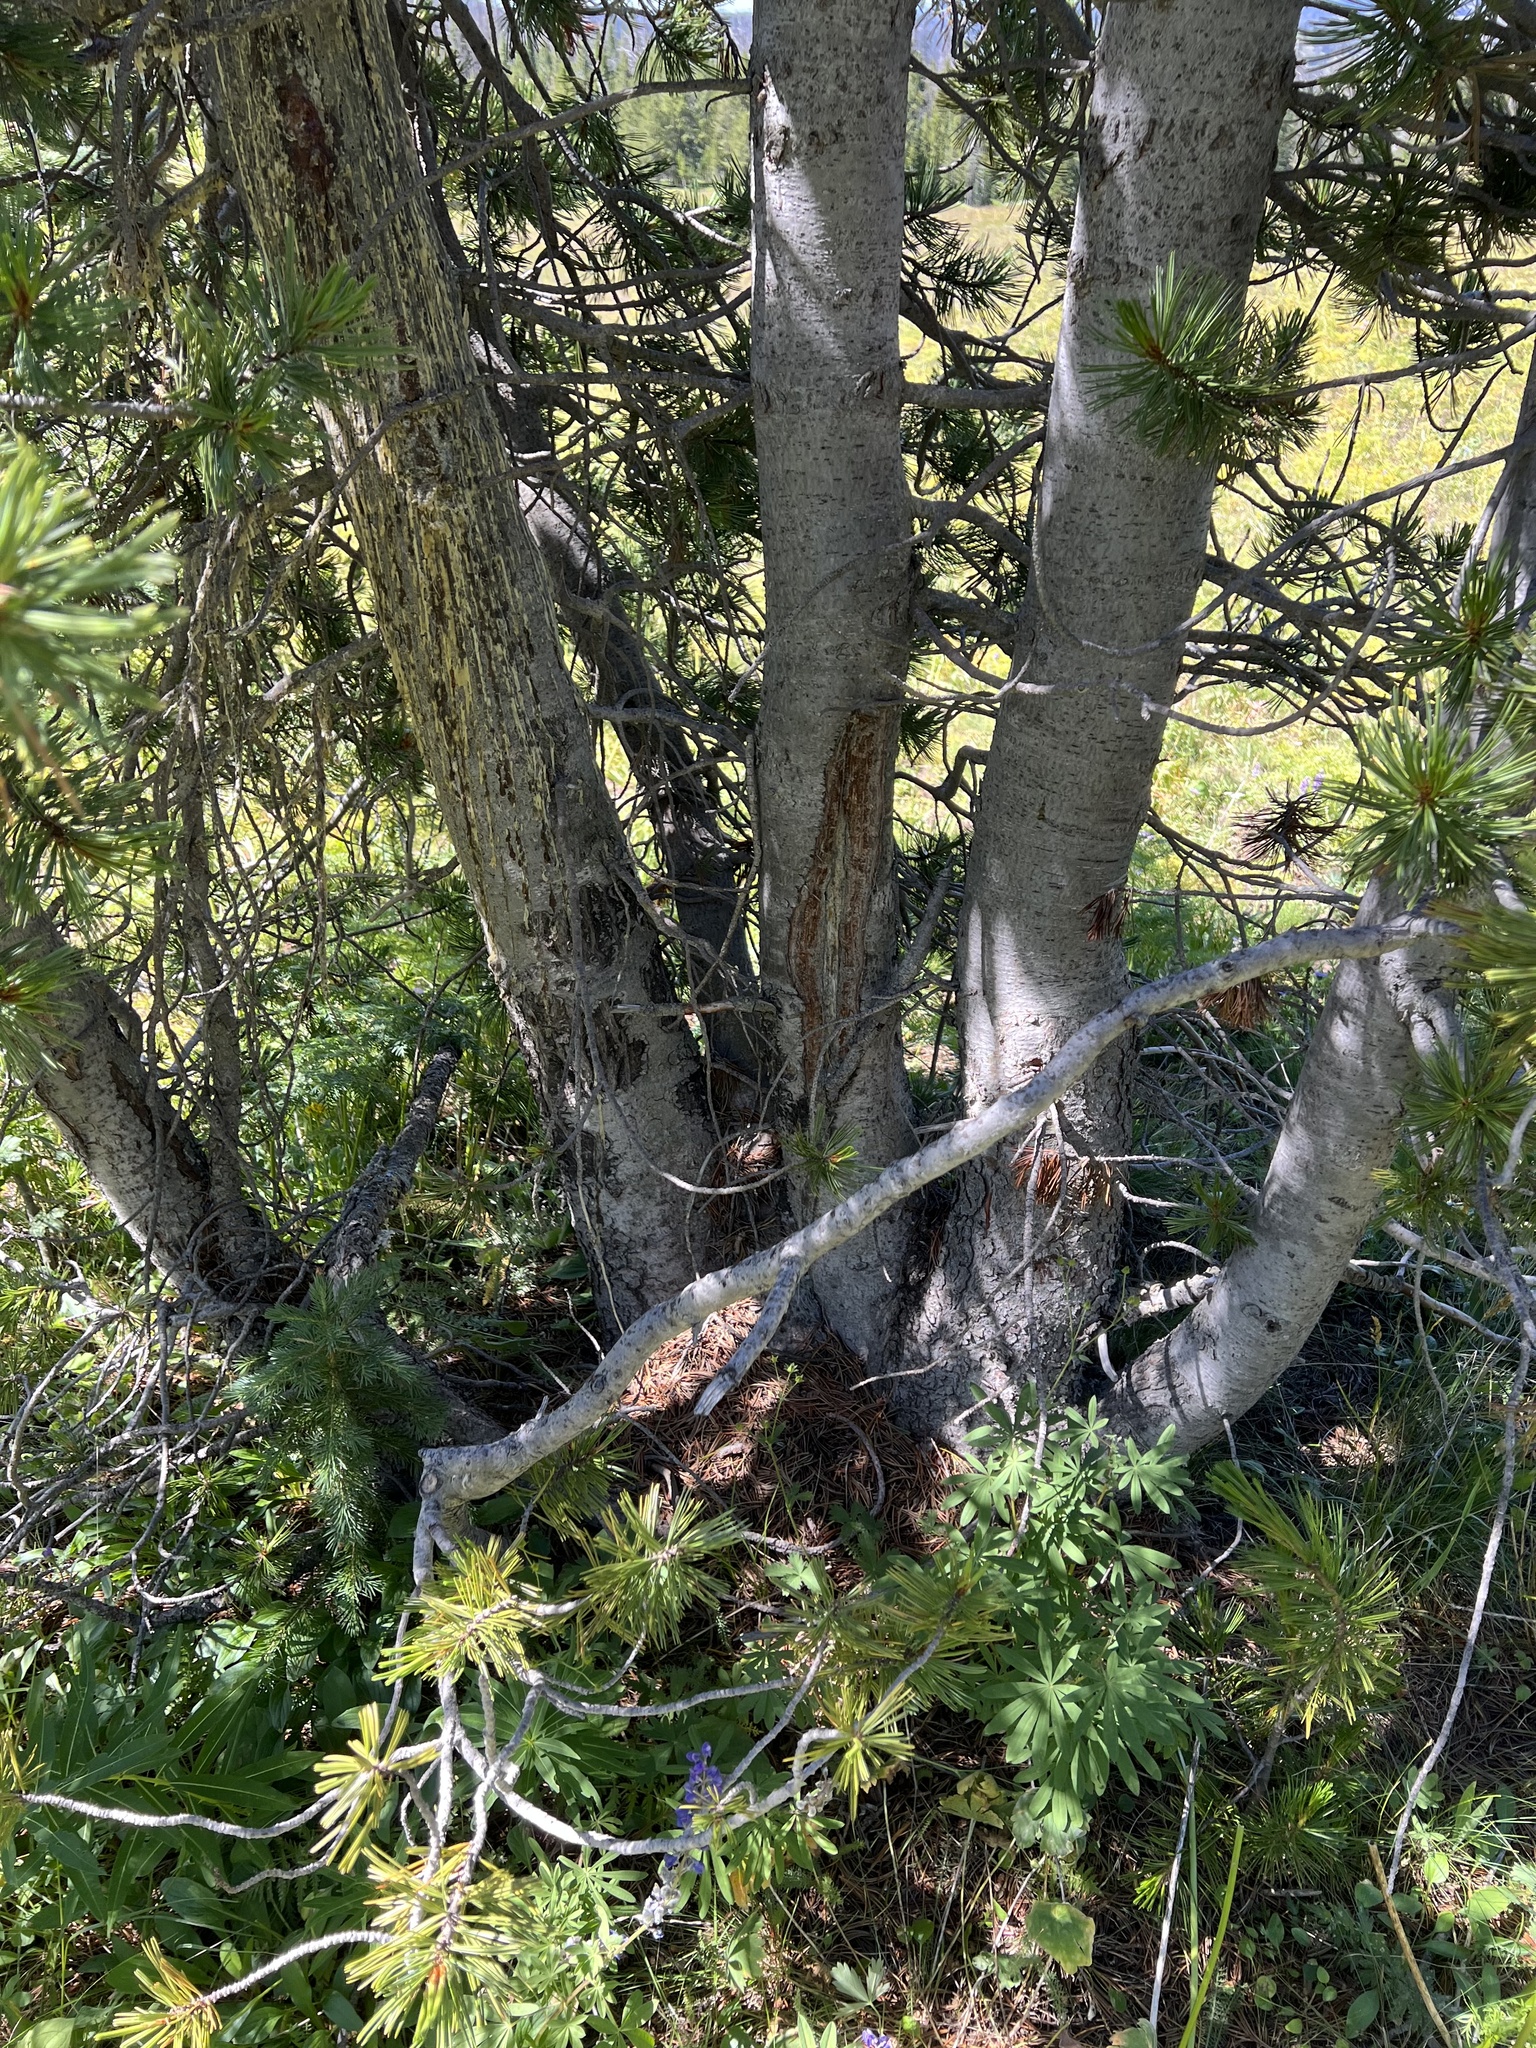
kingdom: Plantae
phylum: Tracheophyta
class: Pinopsida
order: Pinales
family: Pinaceae
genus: Pinus
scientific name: Pinus albicaulis
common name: Whitebark pine
